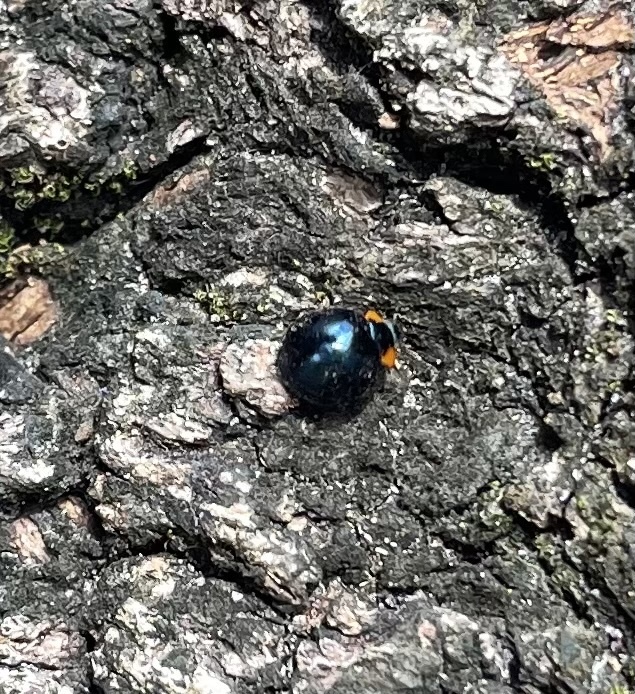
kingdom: Animalia
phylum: Arthropoda
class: Insecta
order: Coleoptera
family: Coccinellidae
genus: Curinus
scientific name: Curinus coeruleus
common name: Ladybird beetle
